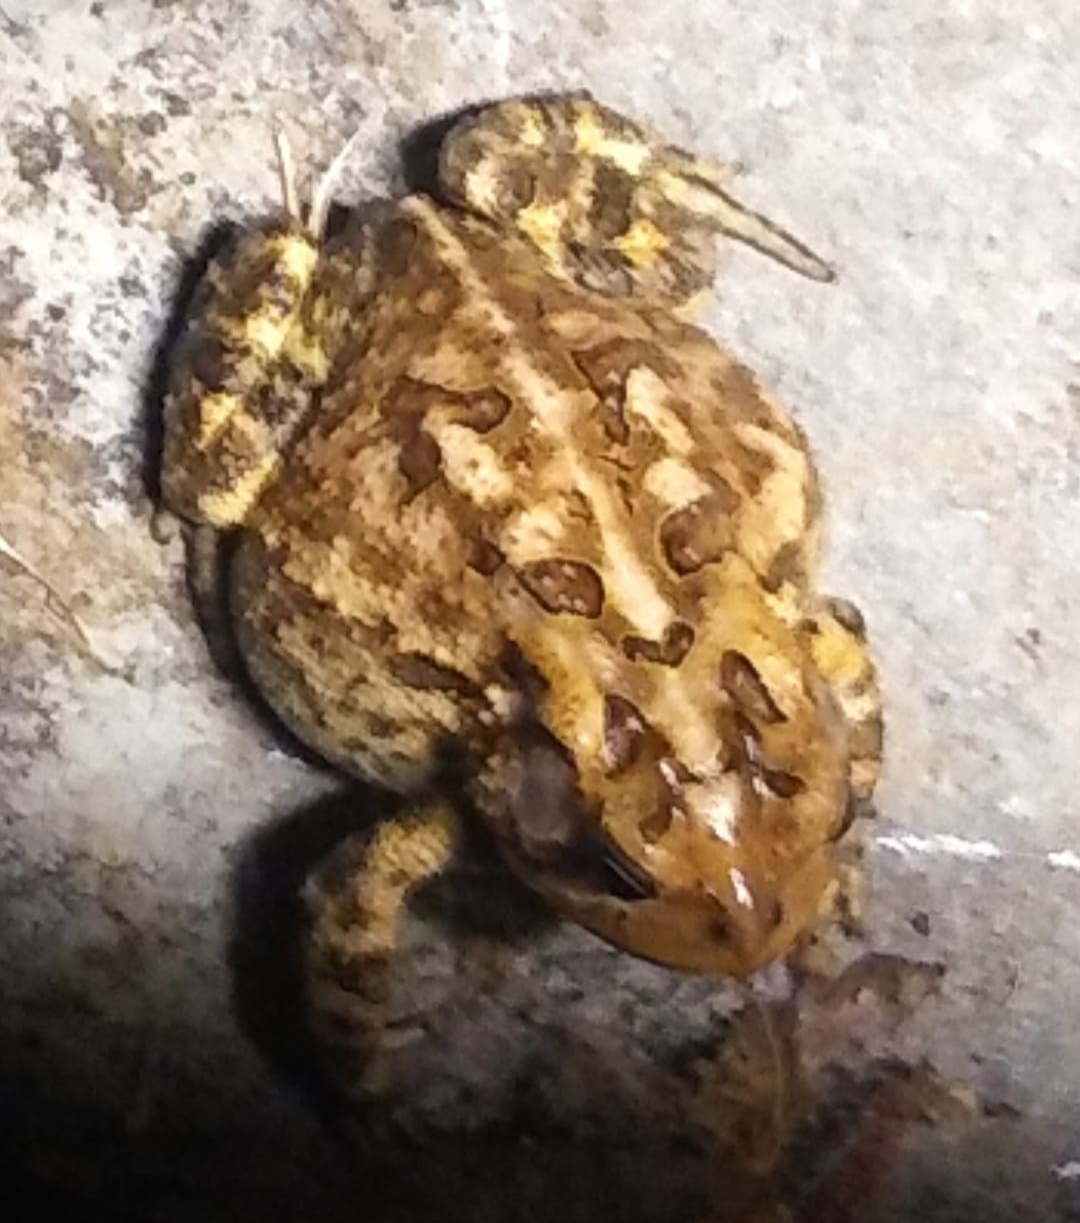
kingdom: Animalia
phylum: Chordata
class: Amphibia
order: Anura
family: Bufonidae
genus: Anaxyrus
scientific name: Anaxyrus terrestris
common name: Southern toad
